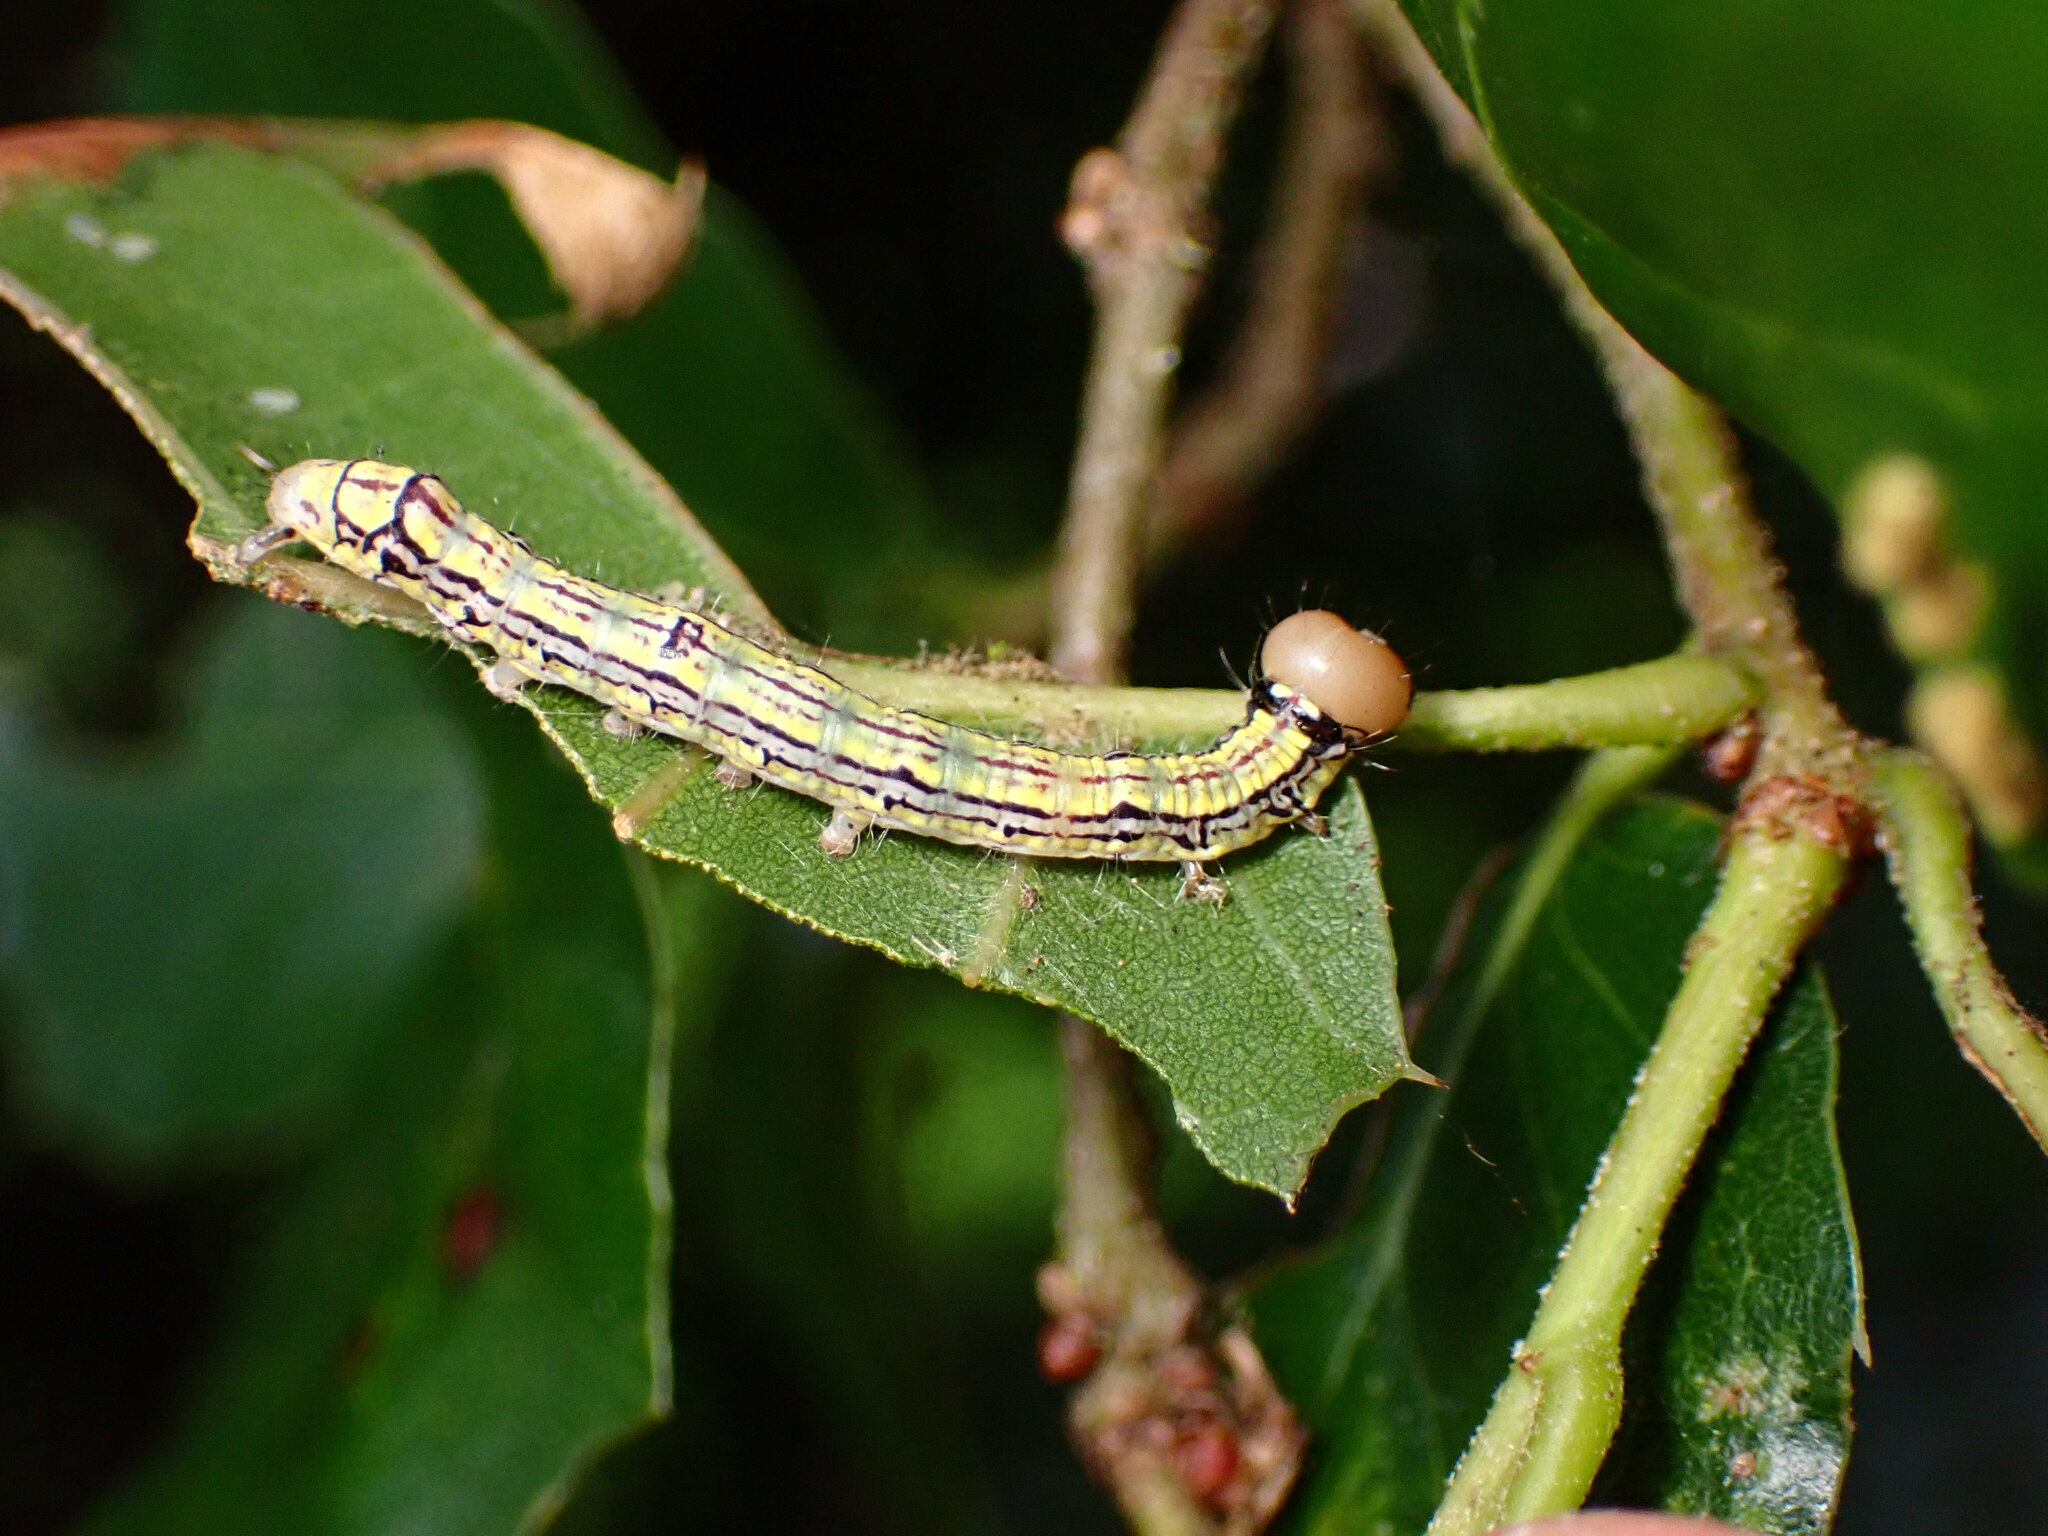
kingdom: Animalia
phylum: Arthropoda
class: Insecta
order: Lepidoptera
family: Notodontidae
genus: Phryganidia
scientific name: Phryganidia californica
